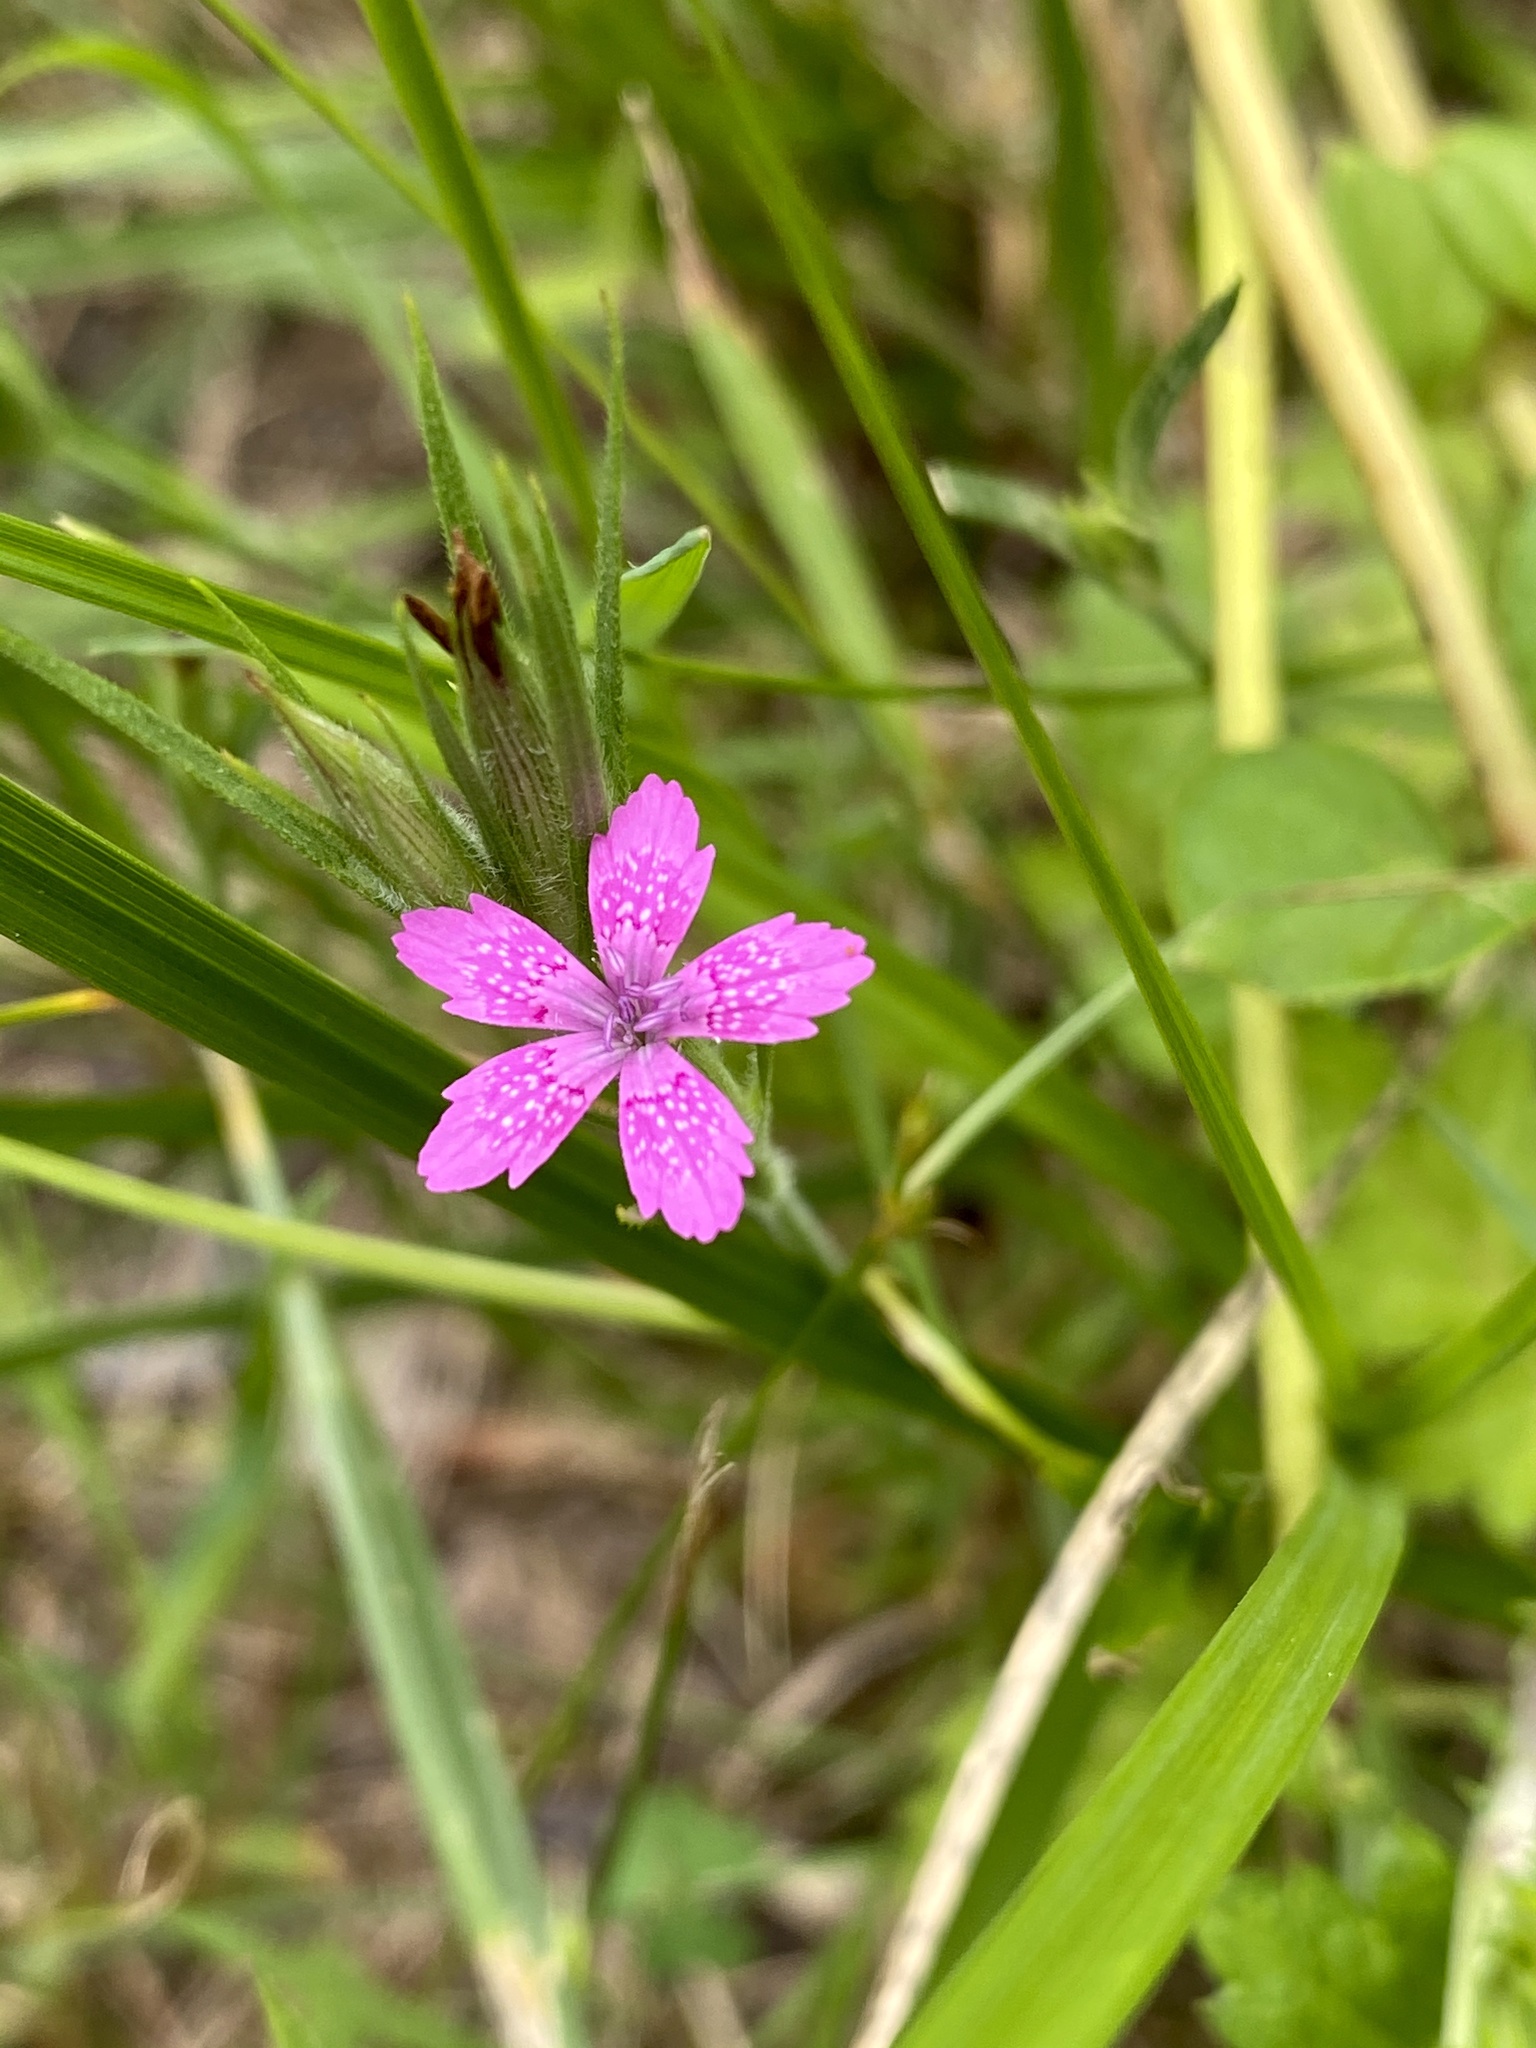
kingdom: Plantae
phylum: Tracheophyta
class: Magnoliopsida
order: Caryophyllales
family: Caryophyllaceae
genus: Dianthus
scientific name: Dianthus armeria
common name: Deptford pink
